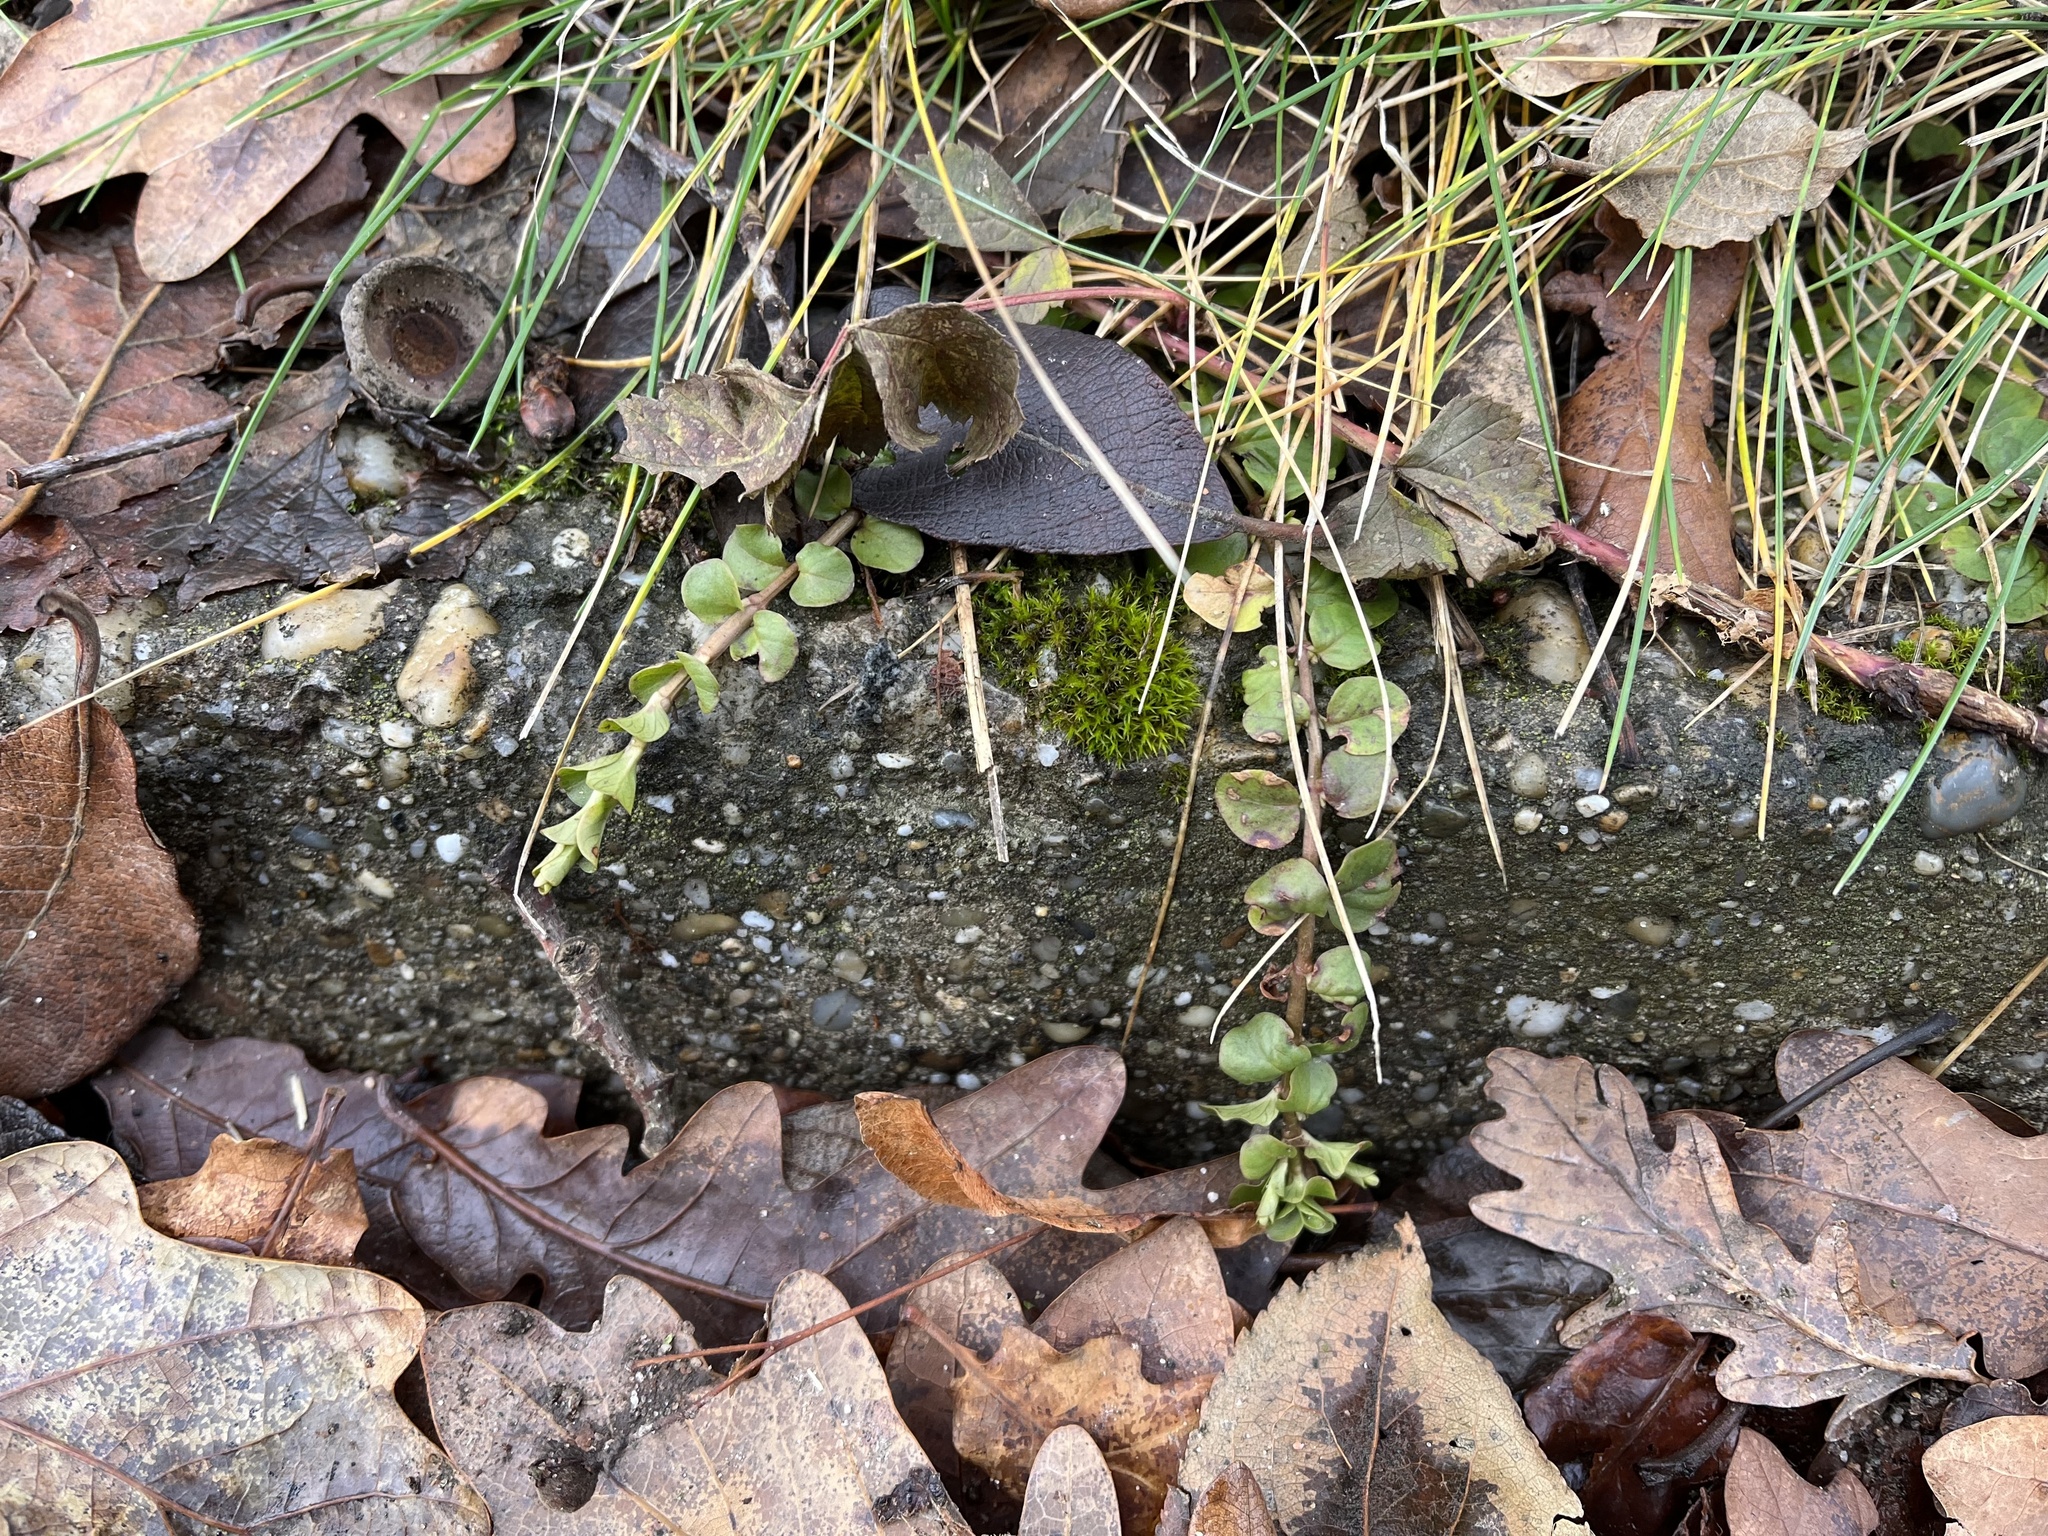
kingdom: Plantae
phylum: Tracheophyta
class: Magnoliopsida
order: Ericales
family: Primulaceae
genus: Lysimachia
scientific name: Lysimachia nummularia
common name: Moneywort
